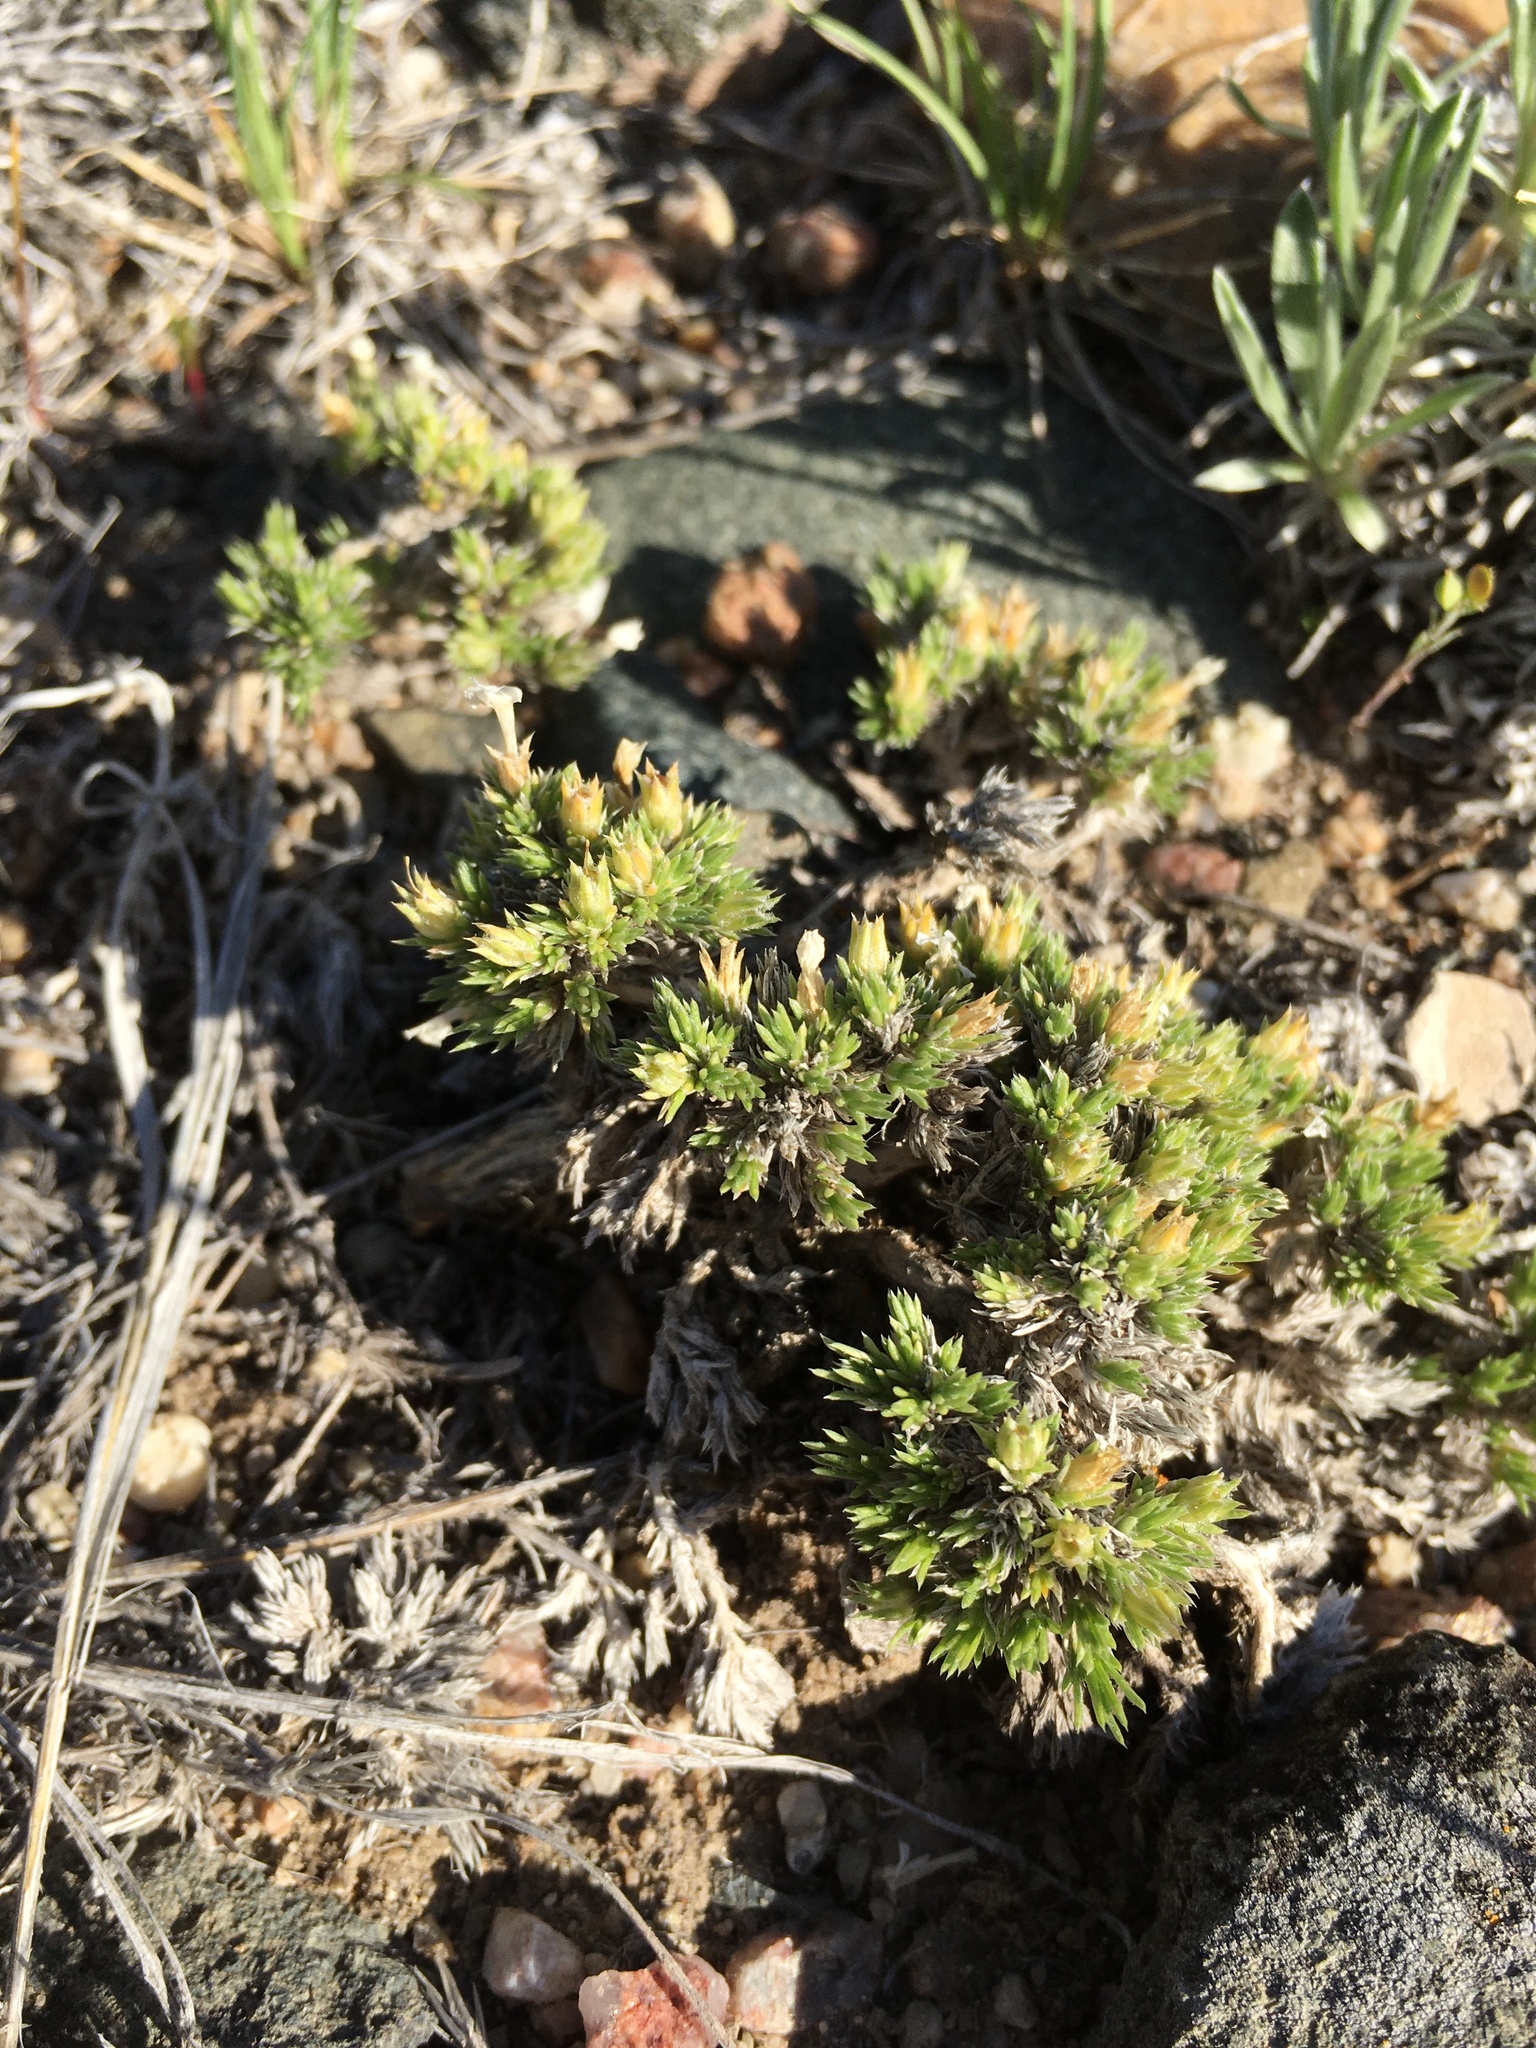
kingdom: Plantae
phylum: Tracheophyta
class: Magnoliopsida
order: Ericales
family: Polemoniaceae
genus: Phlox
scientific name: Phlox hoodii
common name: Moss phlox
